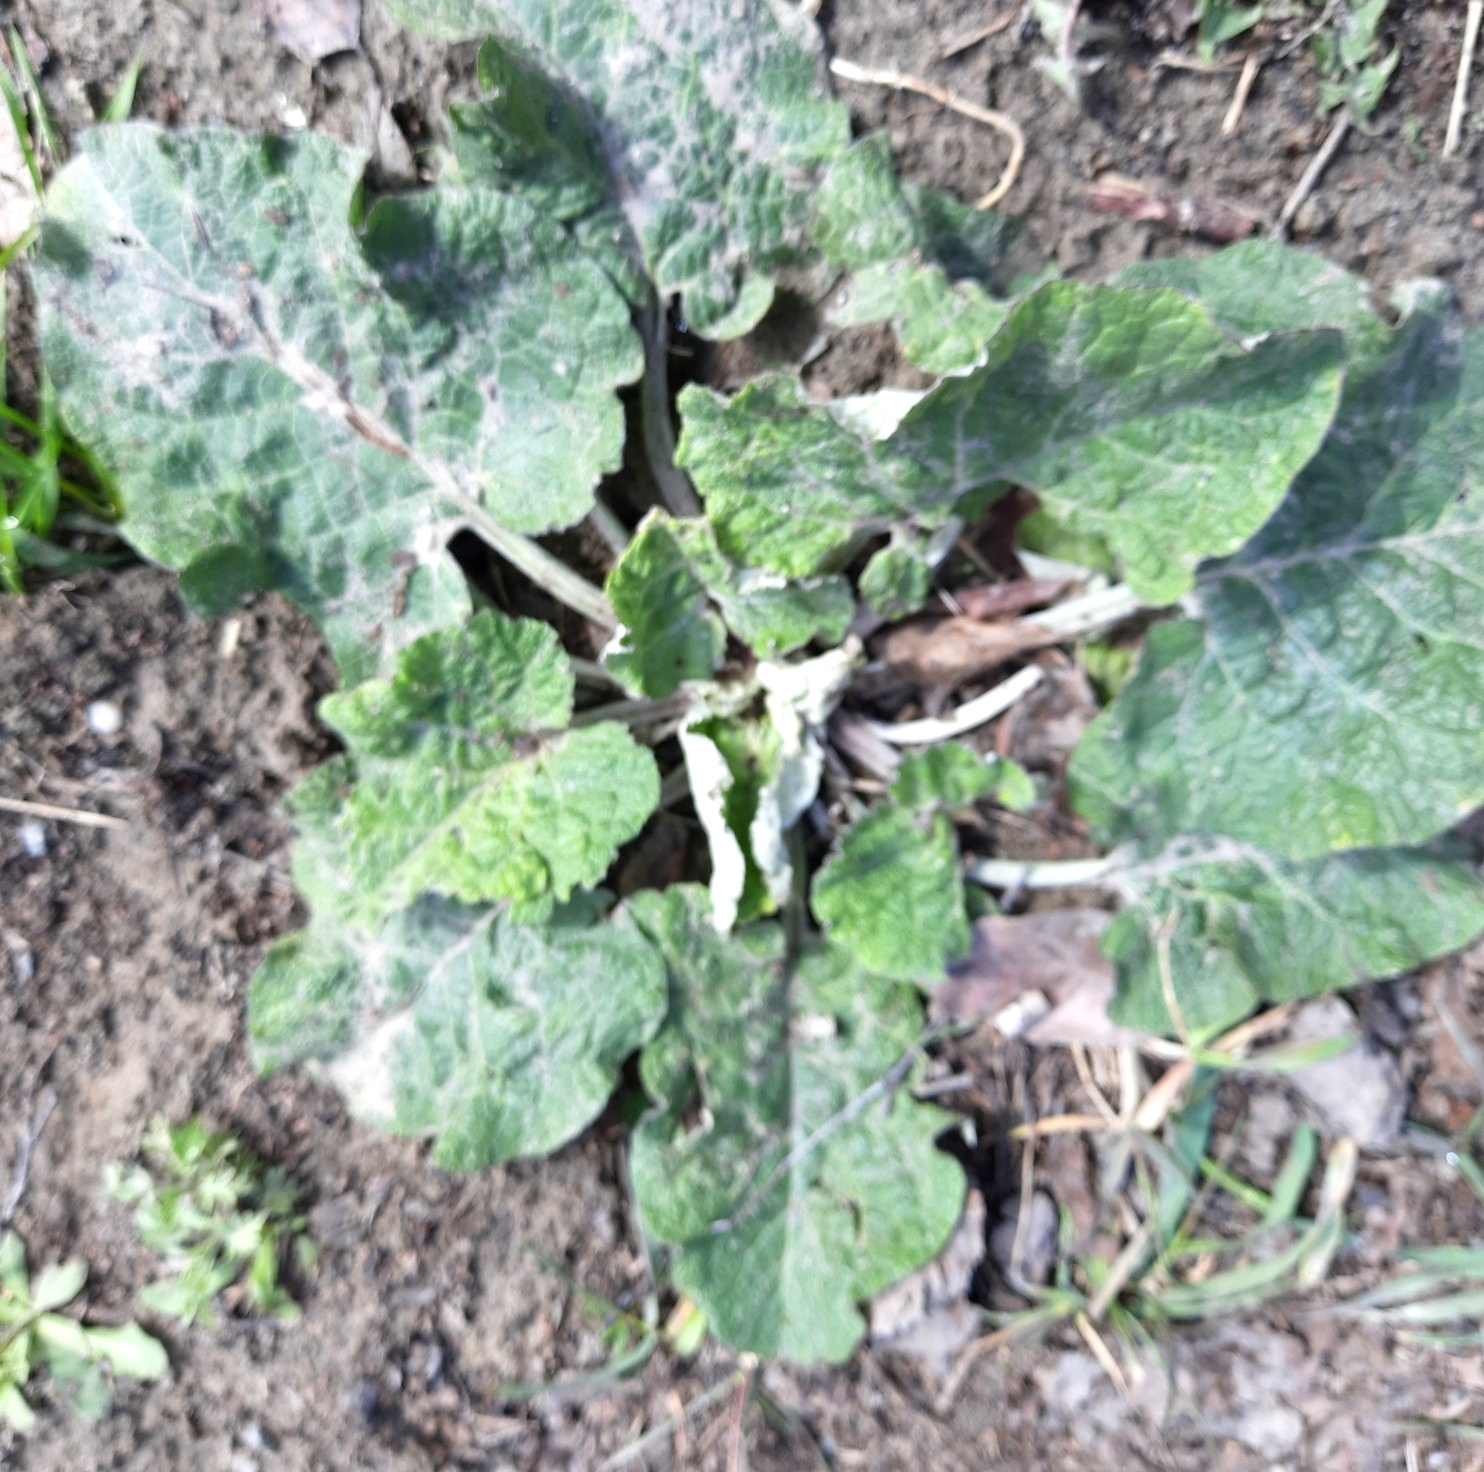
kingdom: Plantae
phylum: Tracheophyta
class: Magnoliopsida
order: Asterales
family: Asteraceae
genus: Arctium
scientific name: Arctium tomentosum
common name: Woolly burdock
